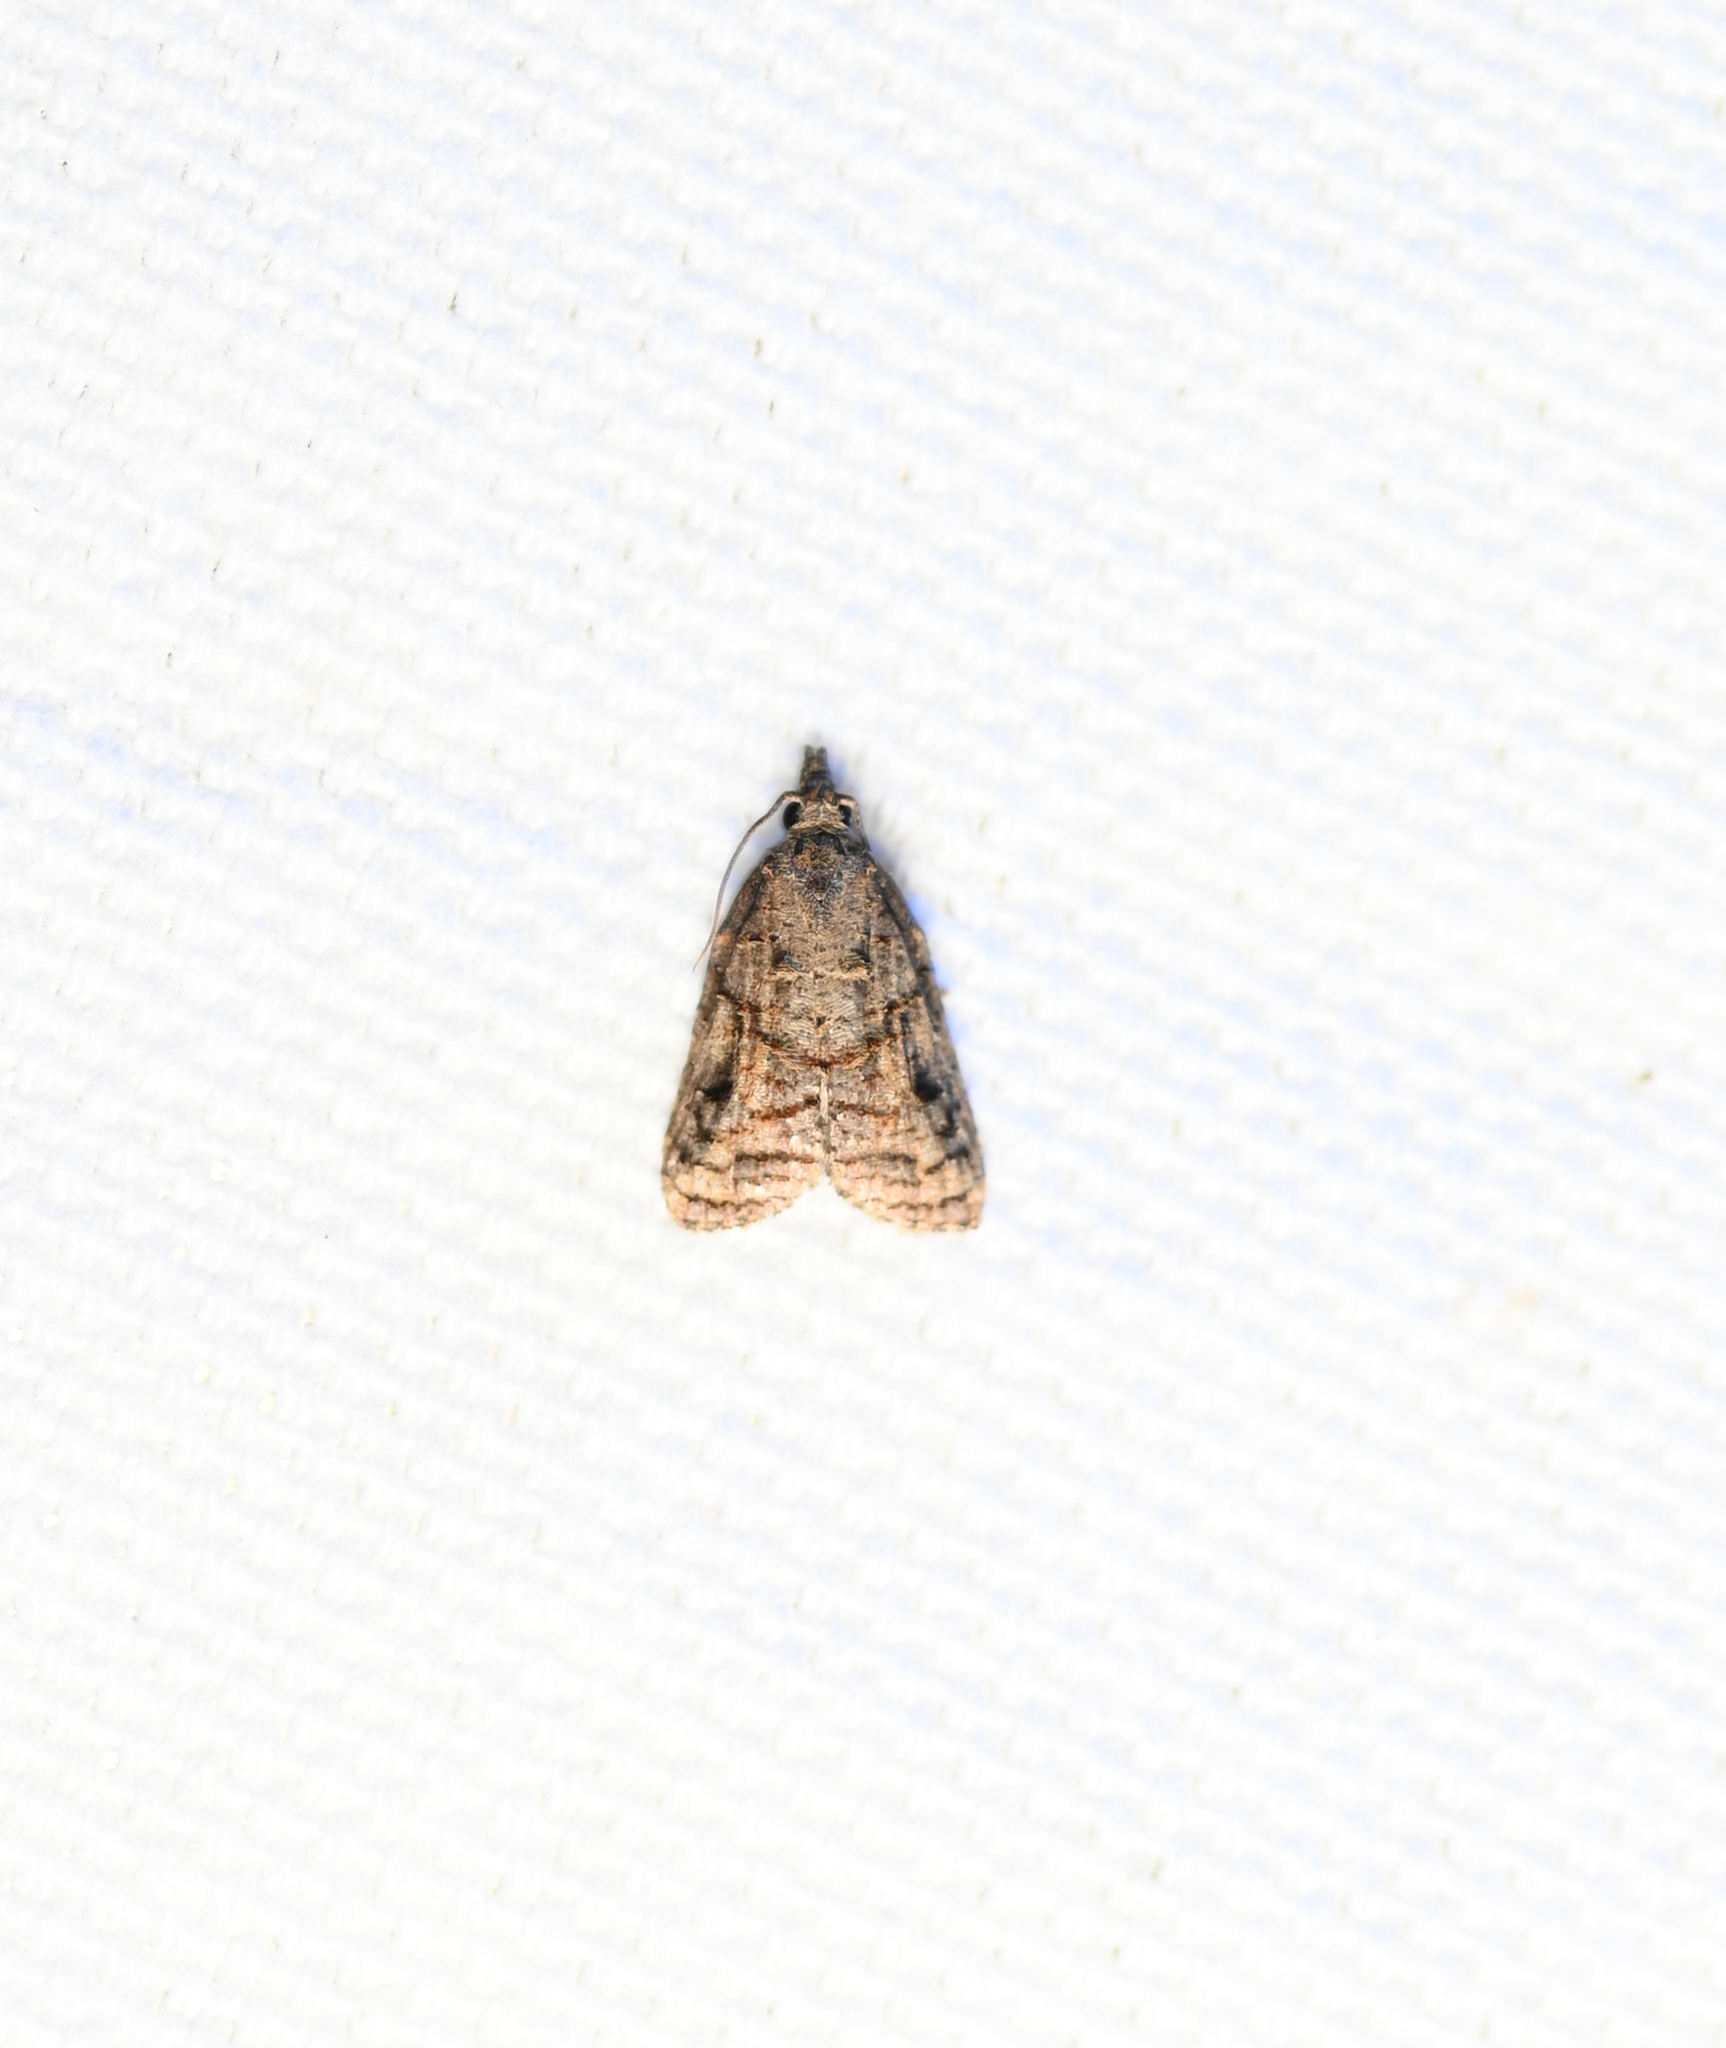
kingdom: Animalia
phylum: Arthropoda
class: Insecta
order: Lepidoptera
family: Tortricidae
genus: Platynota
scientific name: Platynota idaeusalis
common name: Tufted apple bud moth
